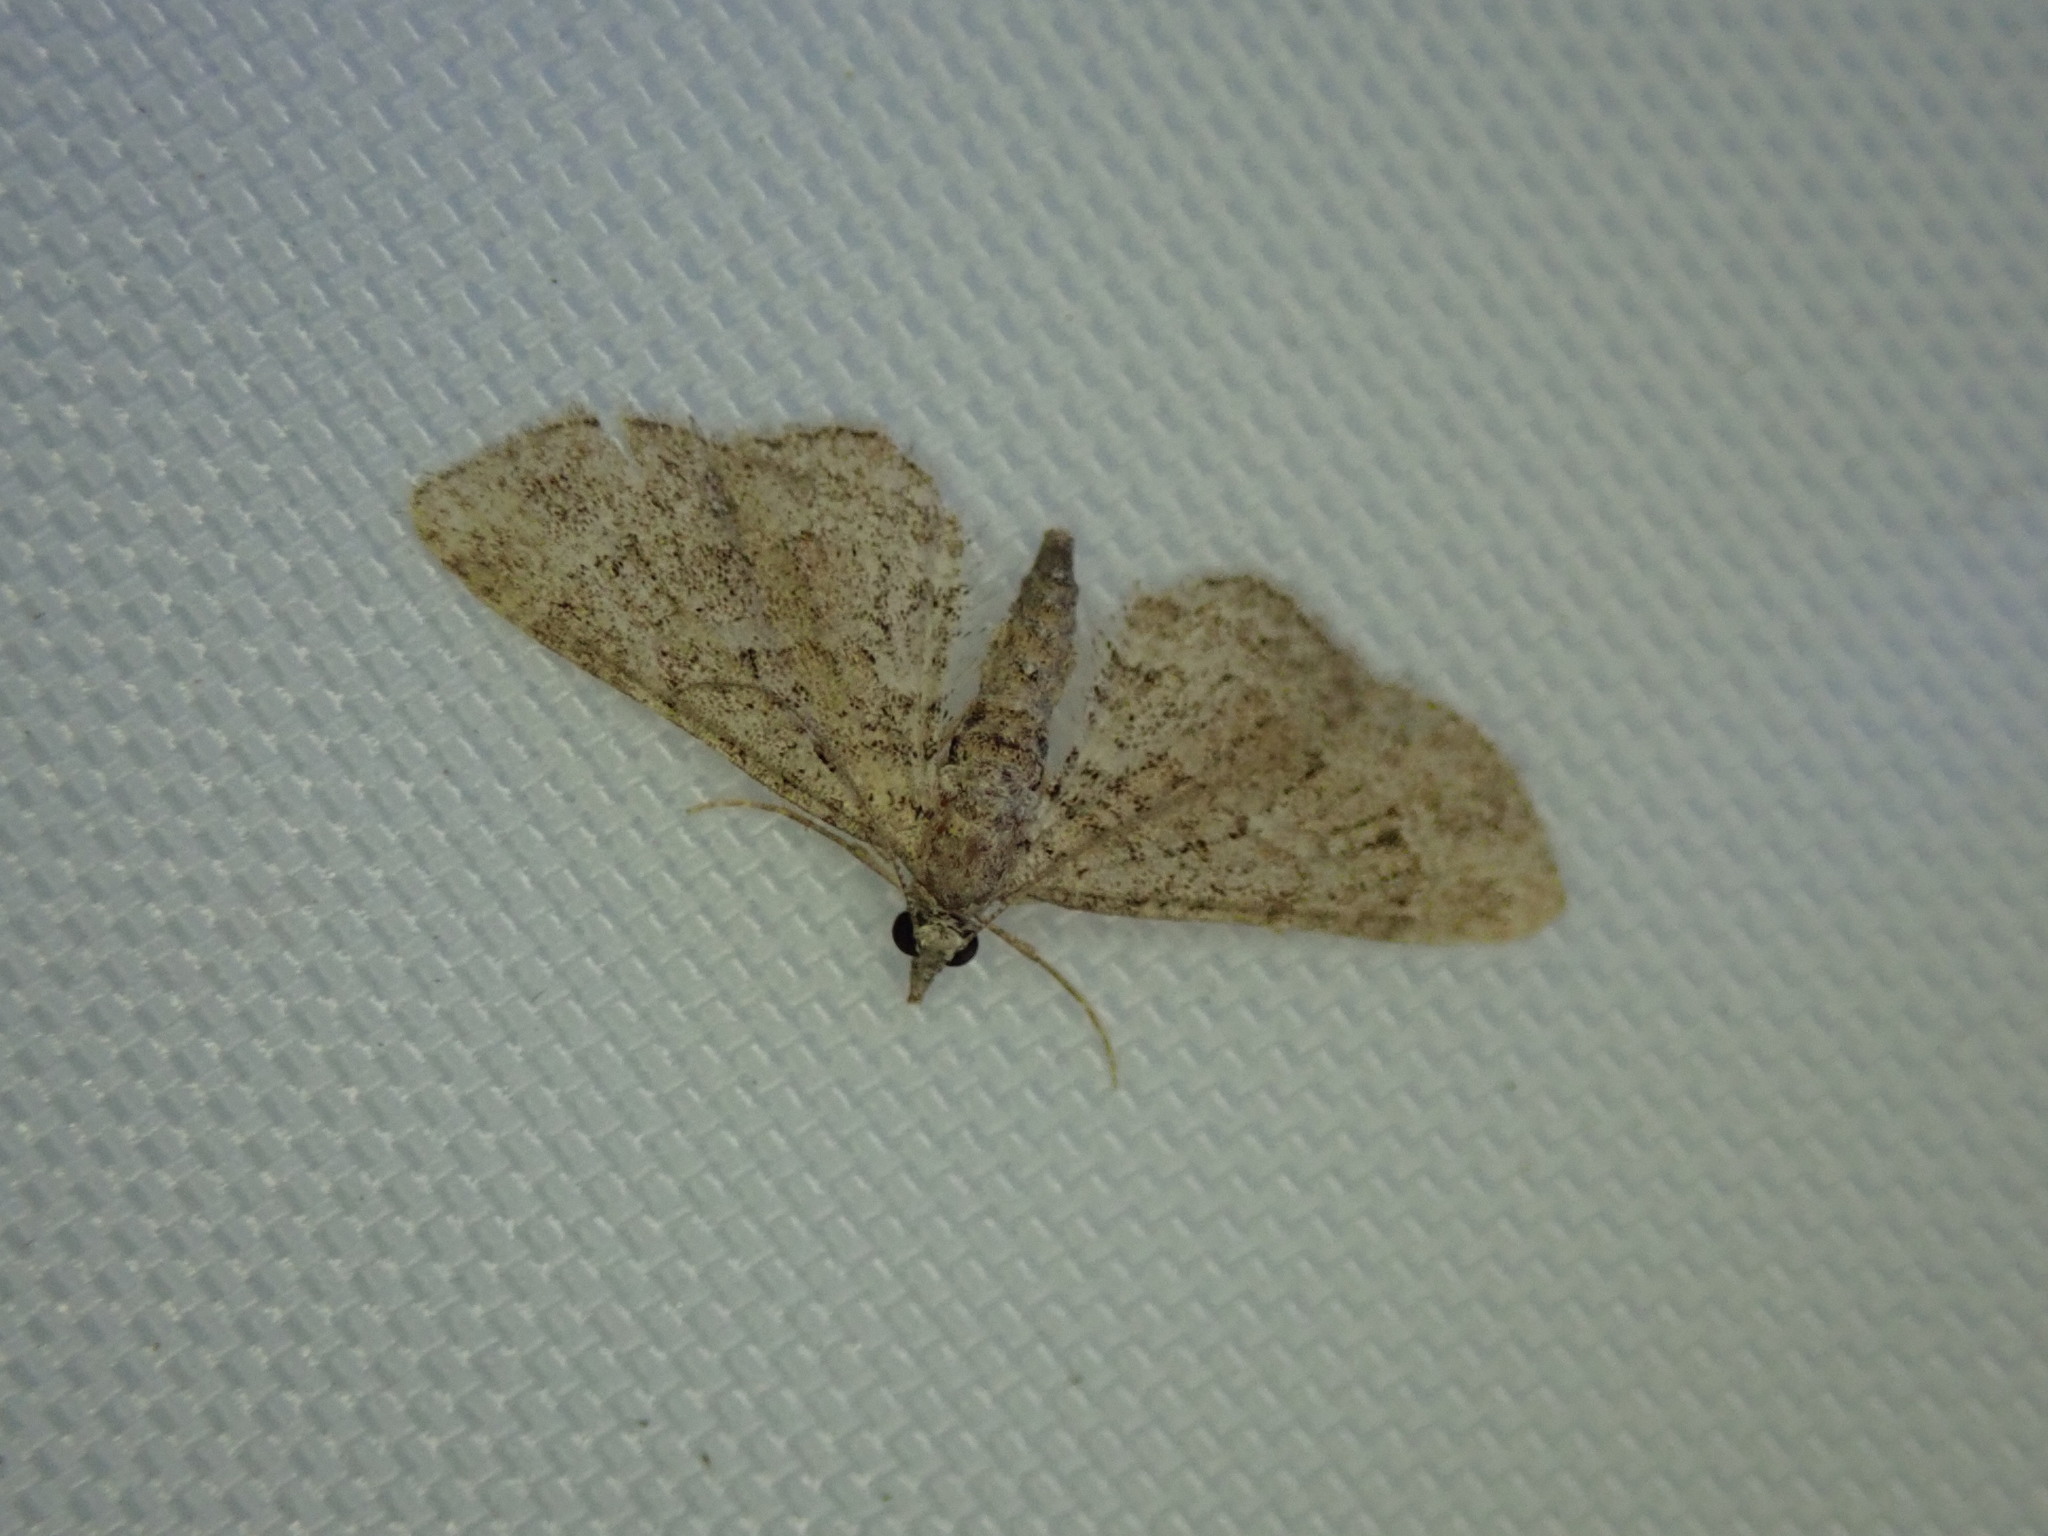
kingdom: Animalia
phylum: Arthropoda
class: Insecta
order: Lepidoptera
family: Geometridae
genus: Gymnoscelis
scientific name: Gymnoscelis rufifasciata
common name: Double-striped pug
